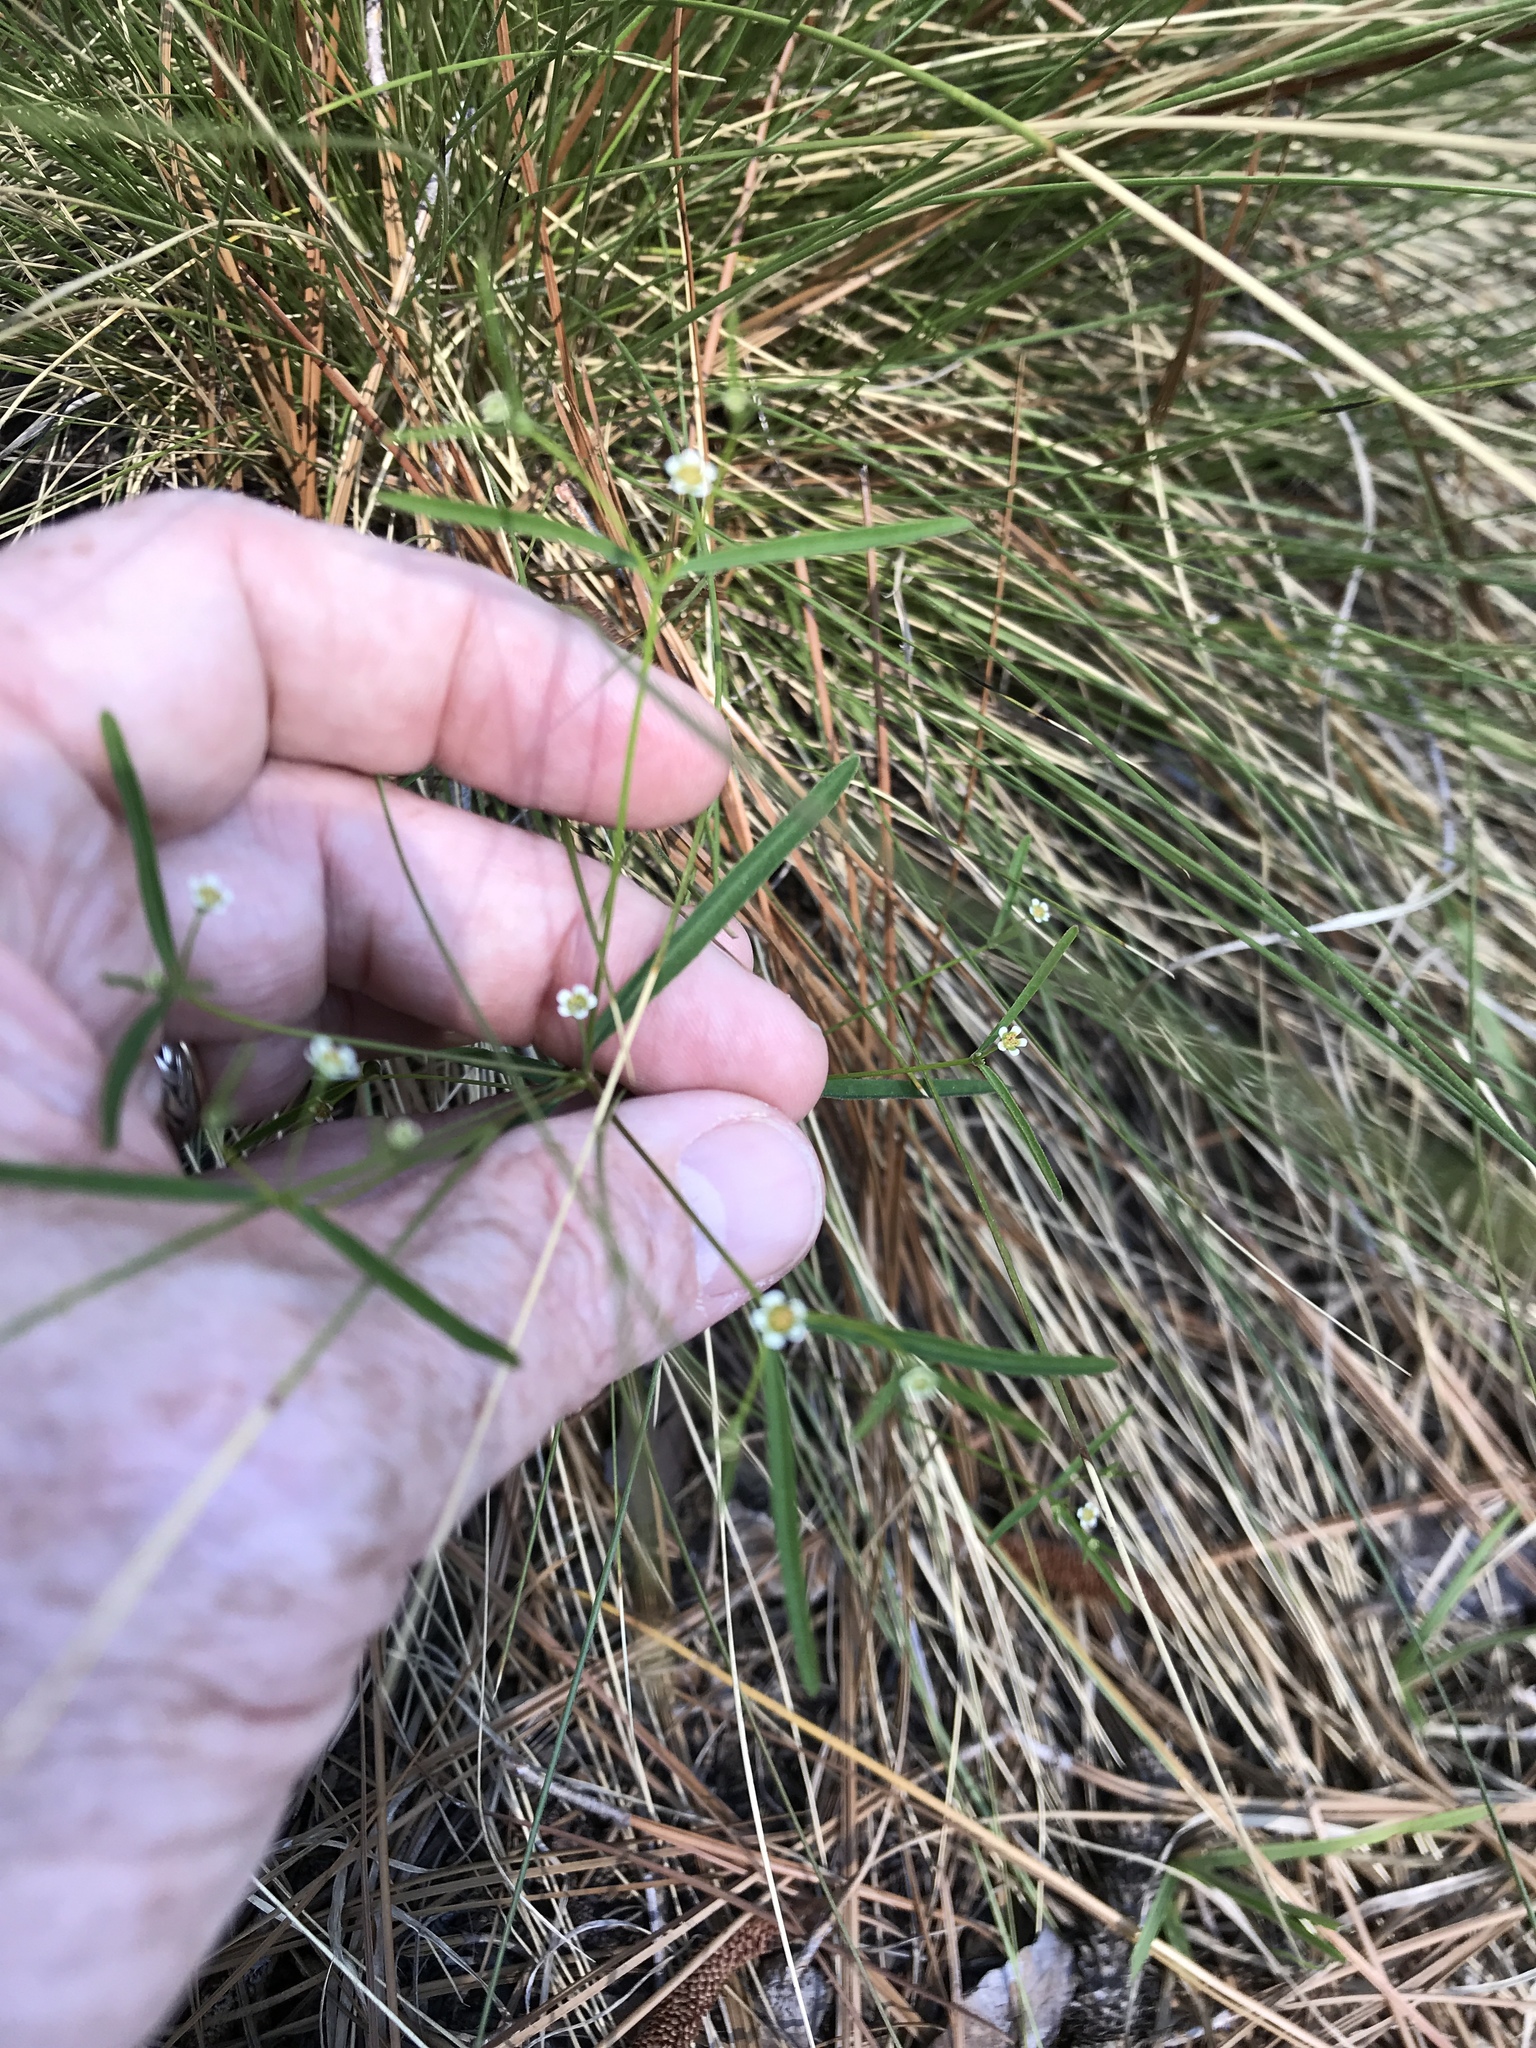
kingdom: Plantae
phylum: Tracheophyta
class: Magnoliopsida
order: Malpighiales
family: Euphorbiaceae
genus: Euphorbia
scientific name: Euphorbia curtisii
